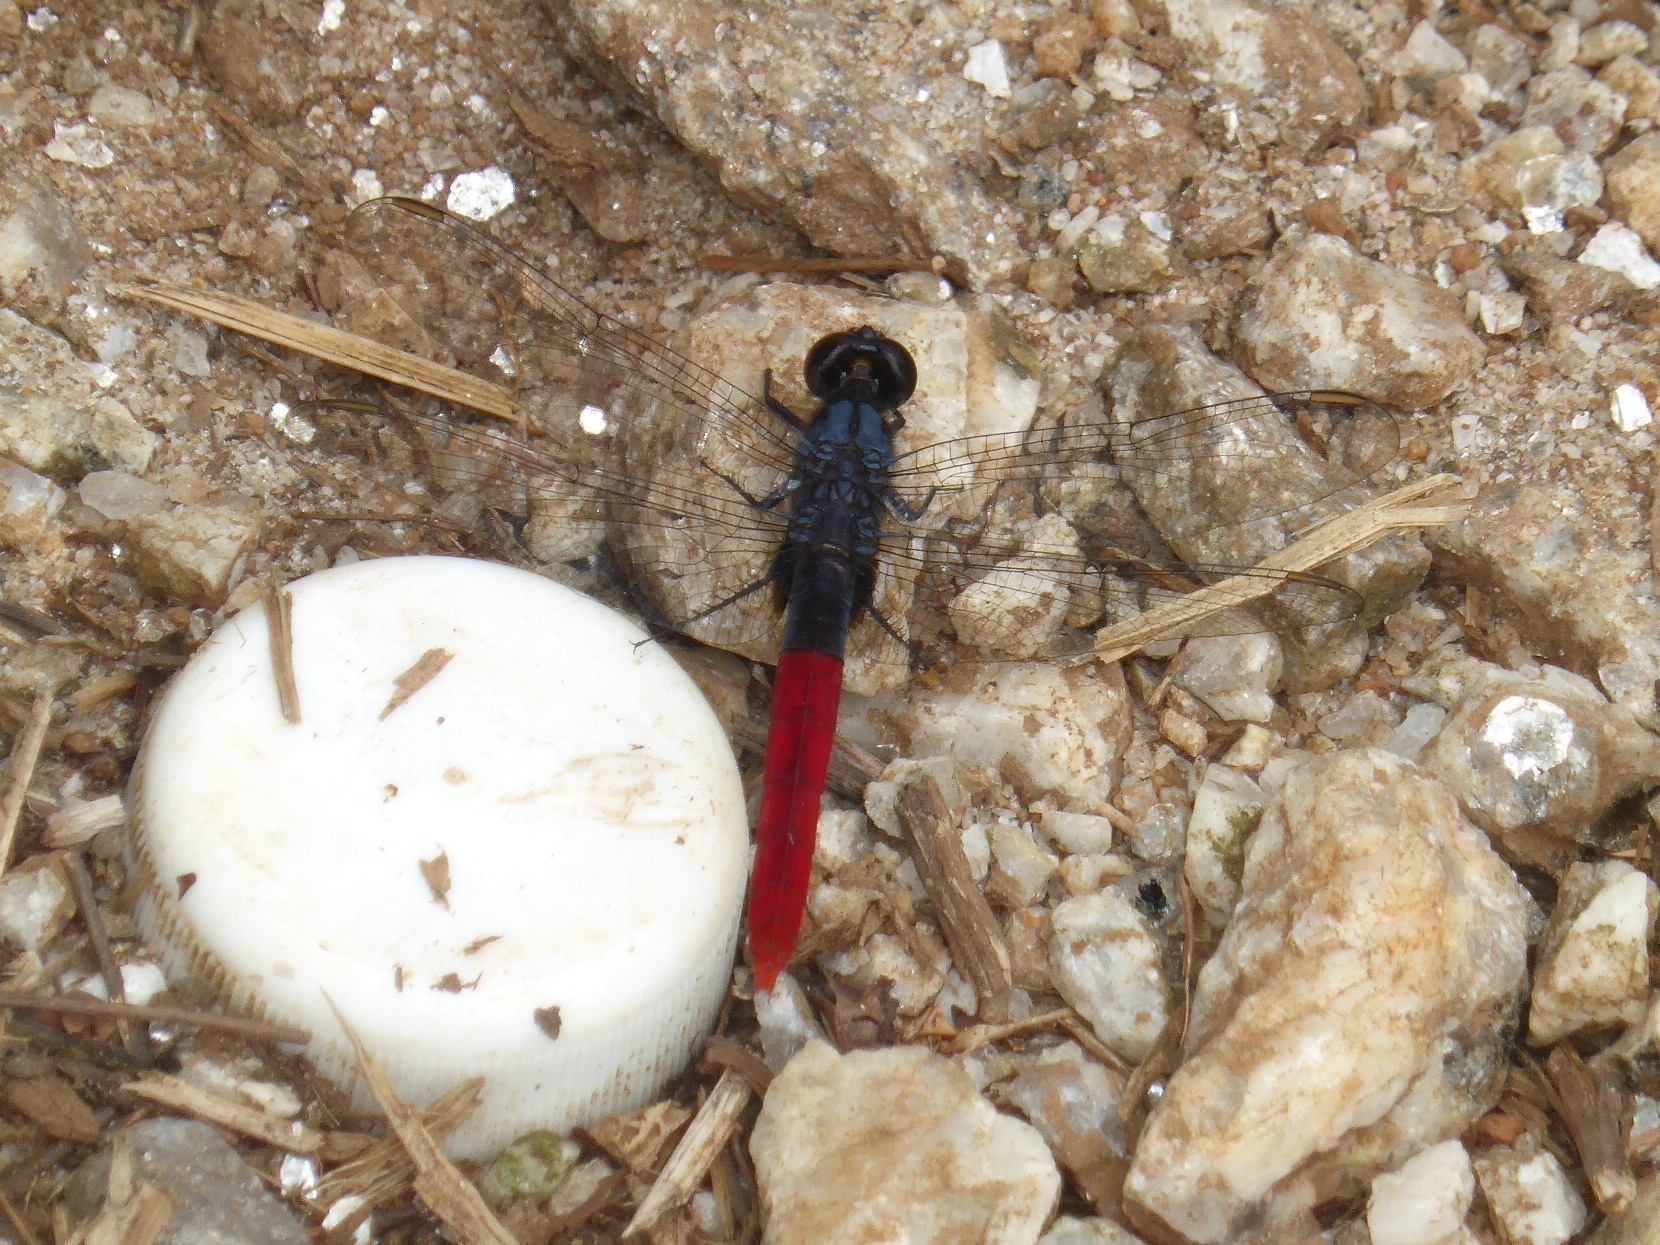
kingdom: Animalia
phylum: Arthropoda
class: Insecta
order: Odonata
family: Libellulidae
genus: Erythemis
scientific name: Erythemis peruviana
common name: Flame-tailed pondhawk
